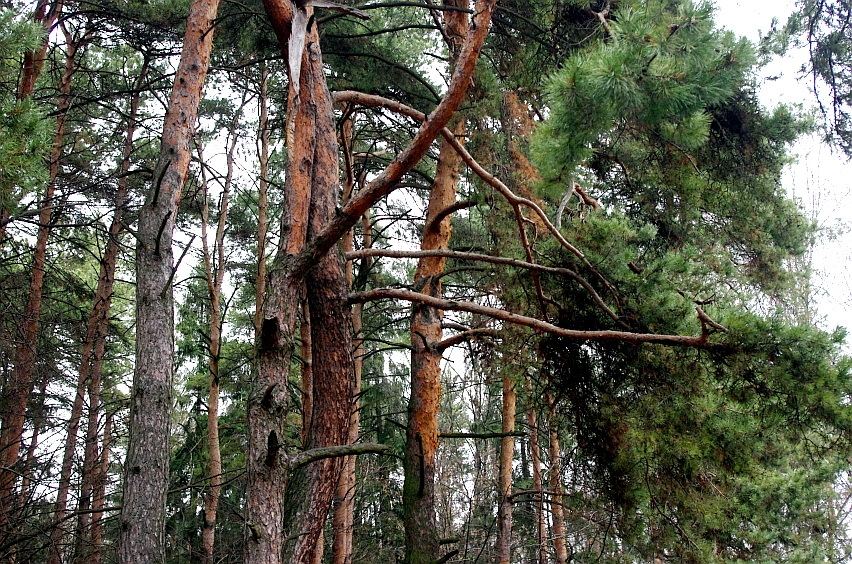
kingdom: Plantae
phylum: Tracheophyta
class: Pinopsida
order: Pinales
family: Pinaceae
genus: Pinus
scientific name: Pinus sylvestris
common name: Scots pine
